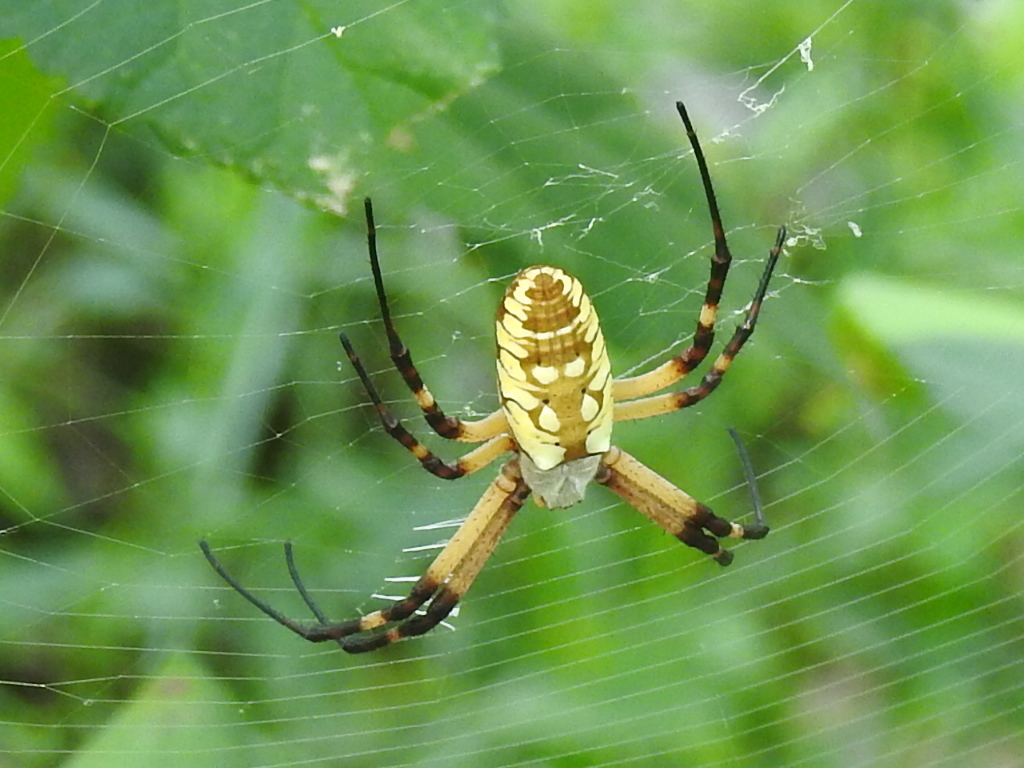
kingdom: Animalia
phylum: Arthropoda
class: Arachnida
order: Araneae
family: Araneidae
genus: Argiope
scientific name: Argiope aurantia
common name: Orb weavers
